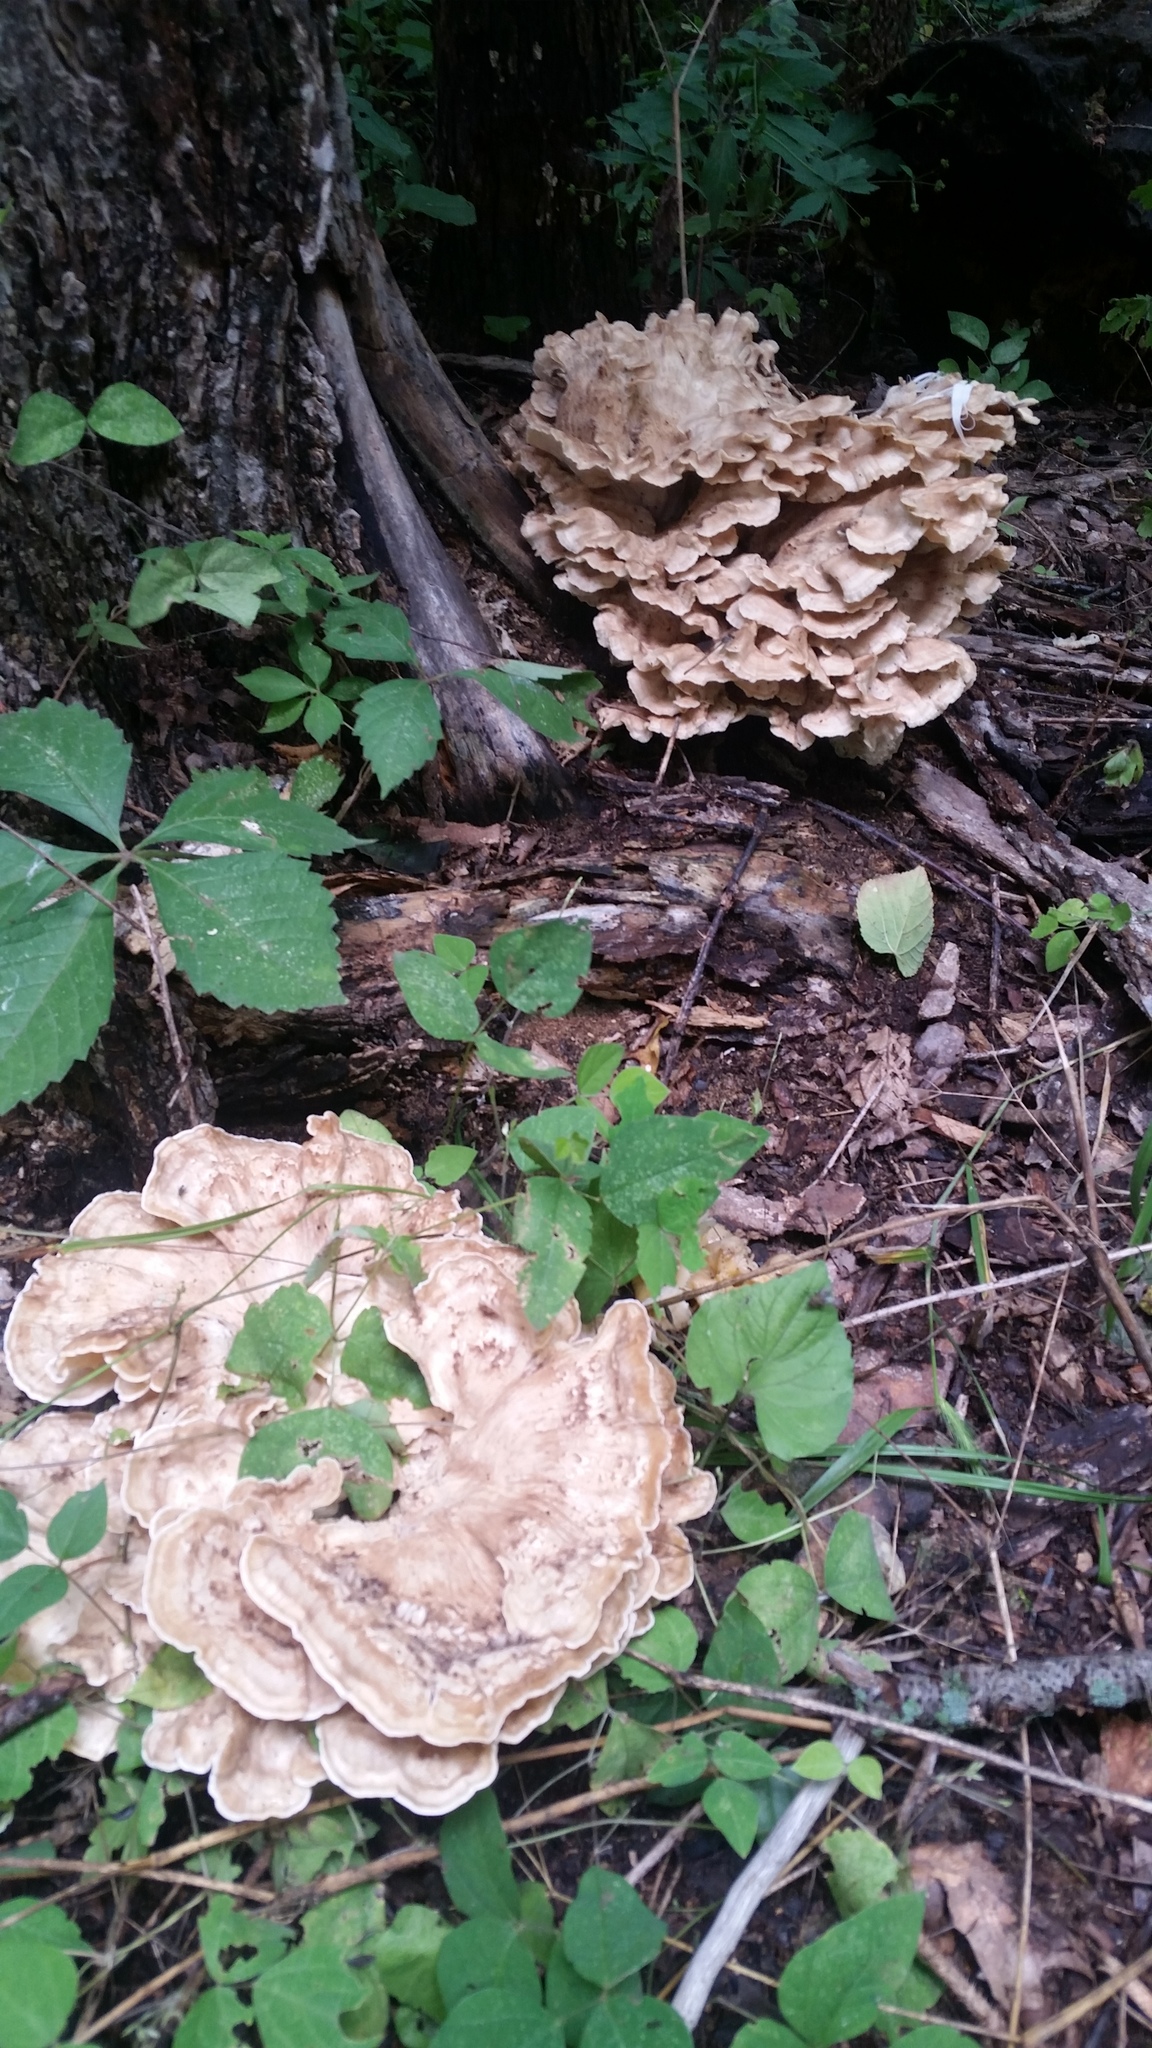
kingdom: Fungi
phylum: Basidiomycota
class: Agaricomycetes
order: Polyporales
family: Meripilaceae
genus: Meripilus
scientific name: Meripilus sumstinei
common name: Black-staining polypore
